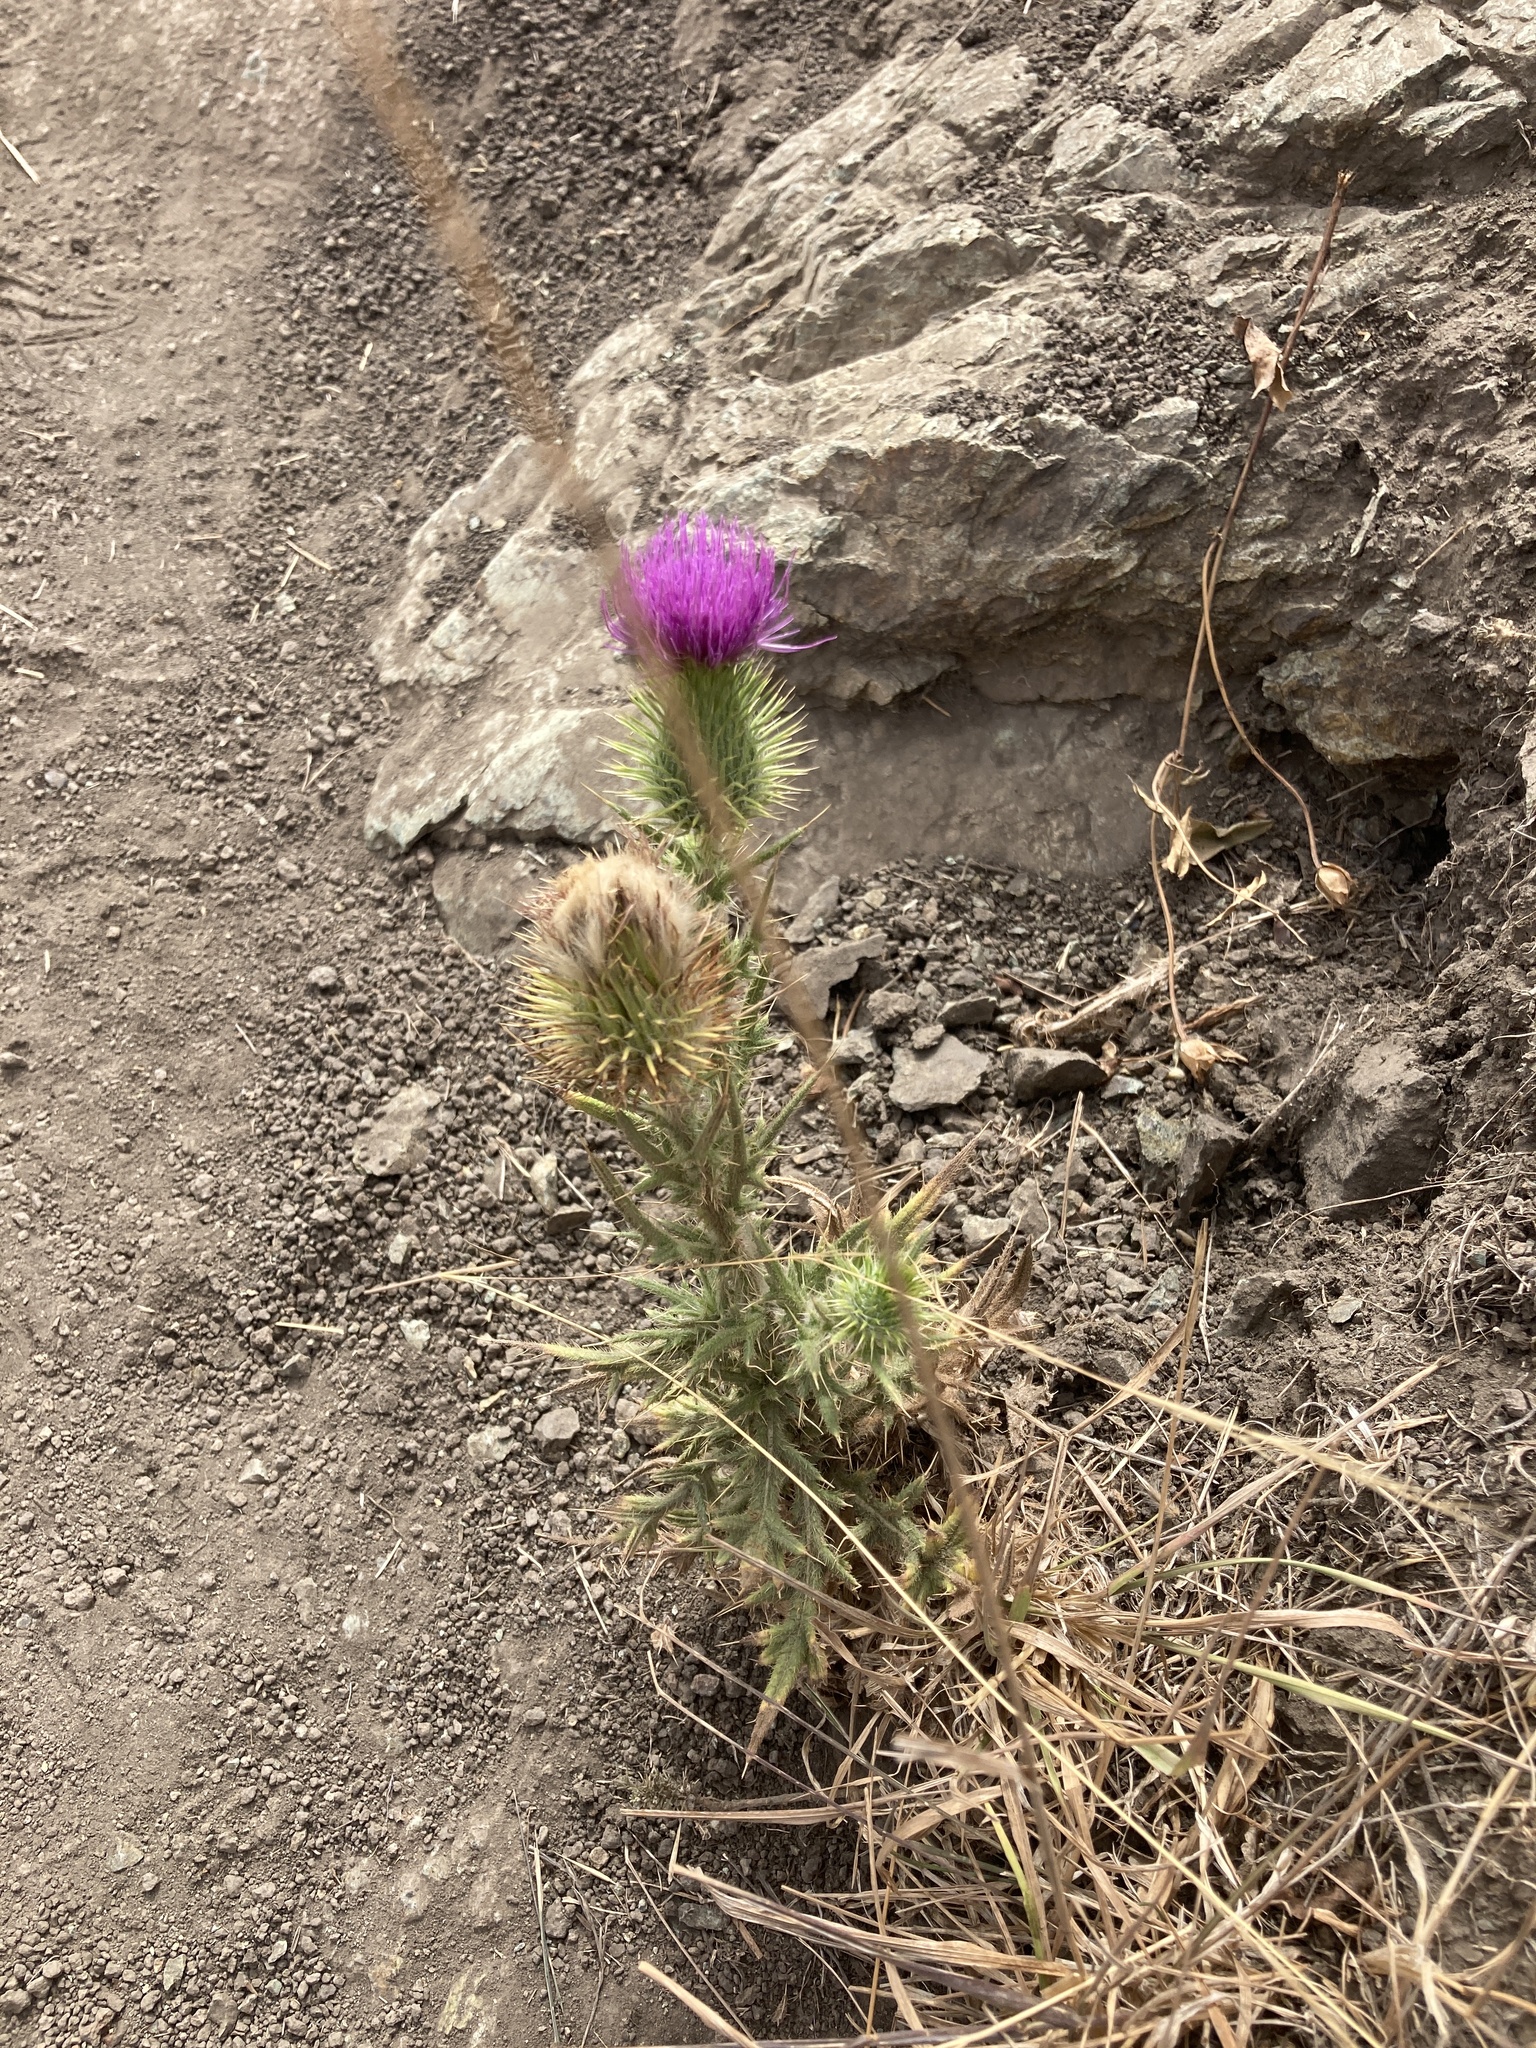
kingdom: Plantae
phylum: Tracheophyta
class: Magnoliopsida
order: Asterales
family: Asteraceae
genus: Cirsium
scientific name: Cirsium vulgare
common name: Bull thistle
